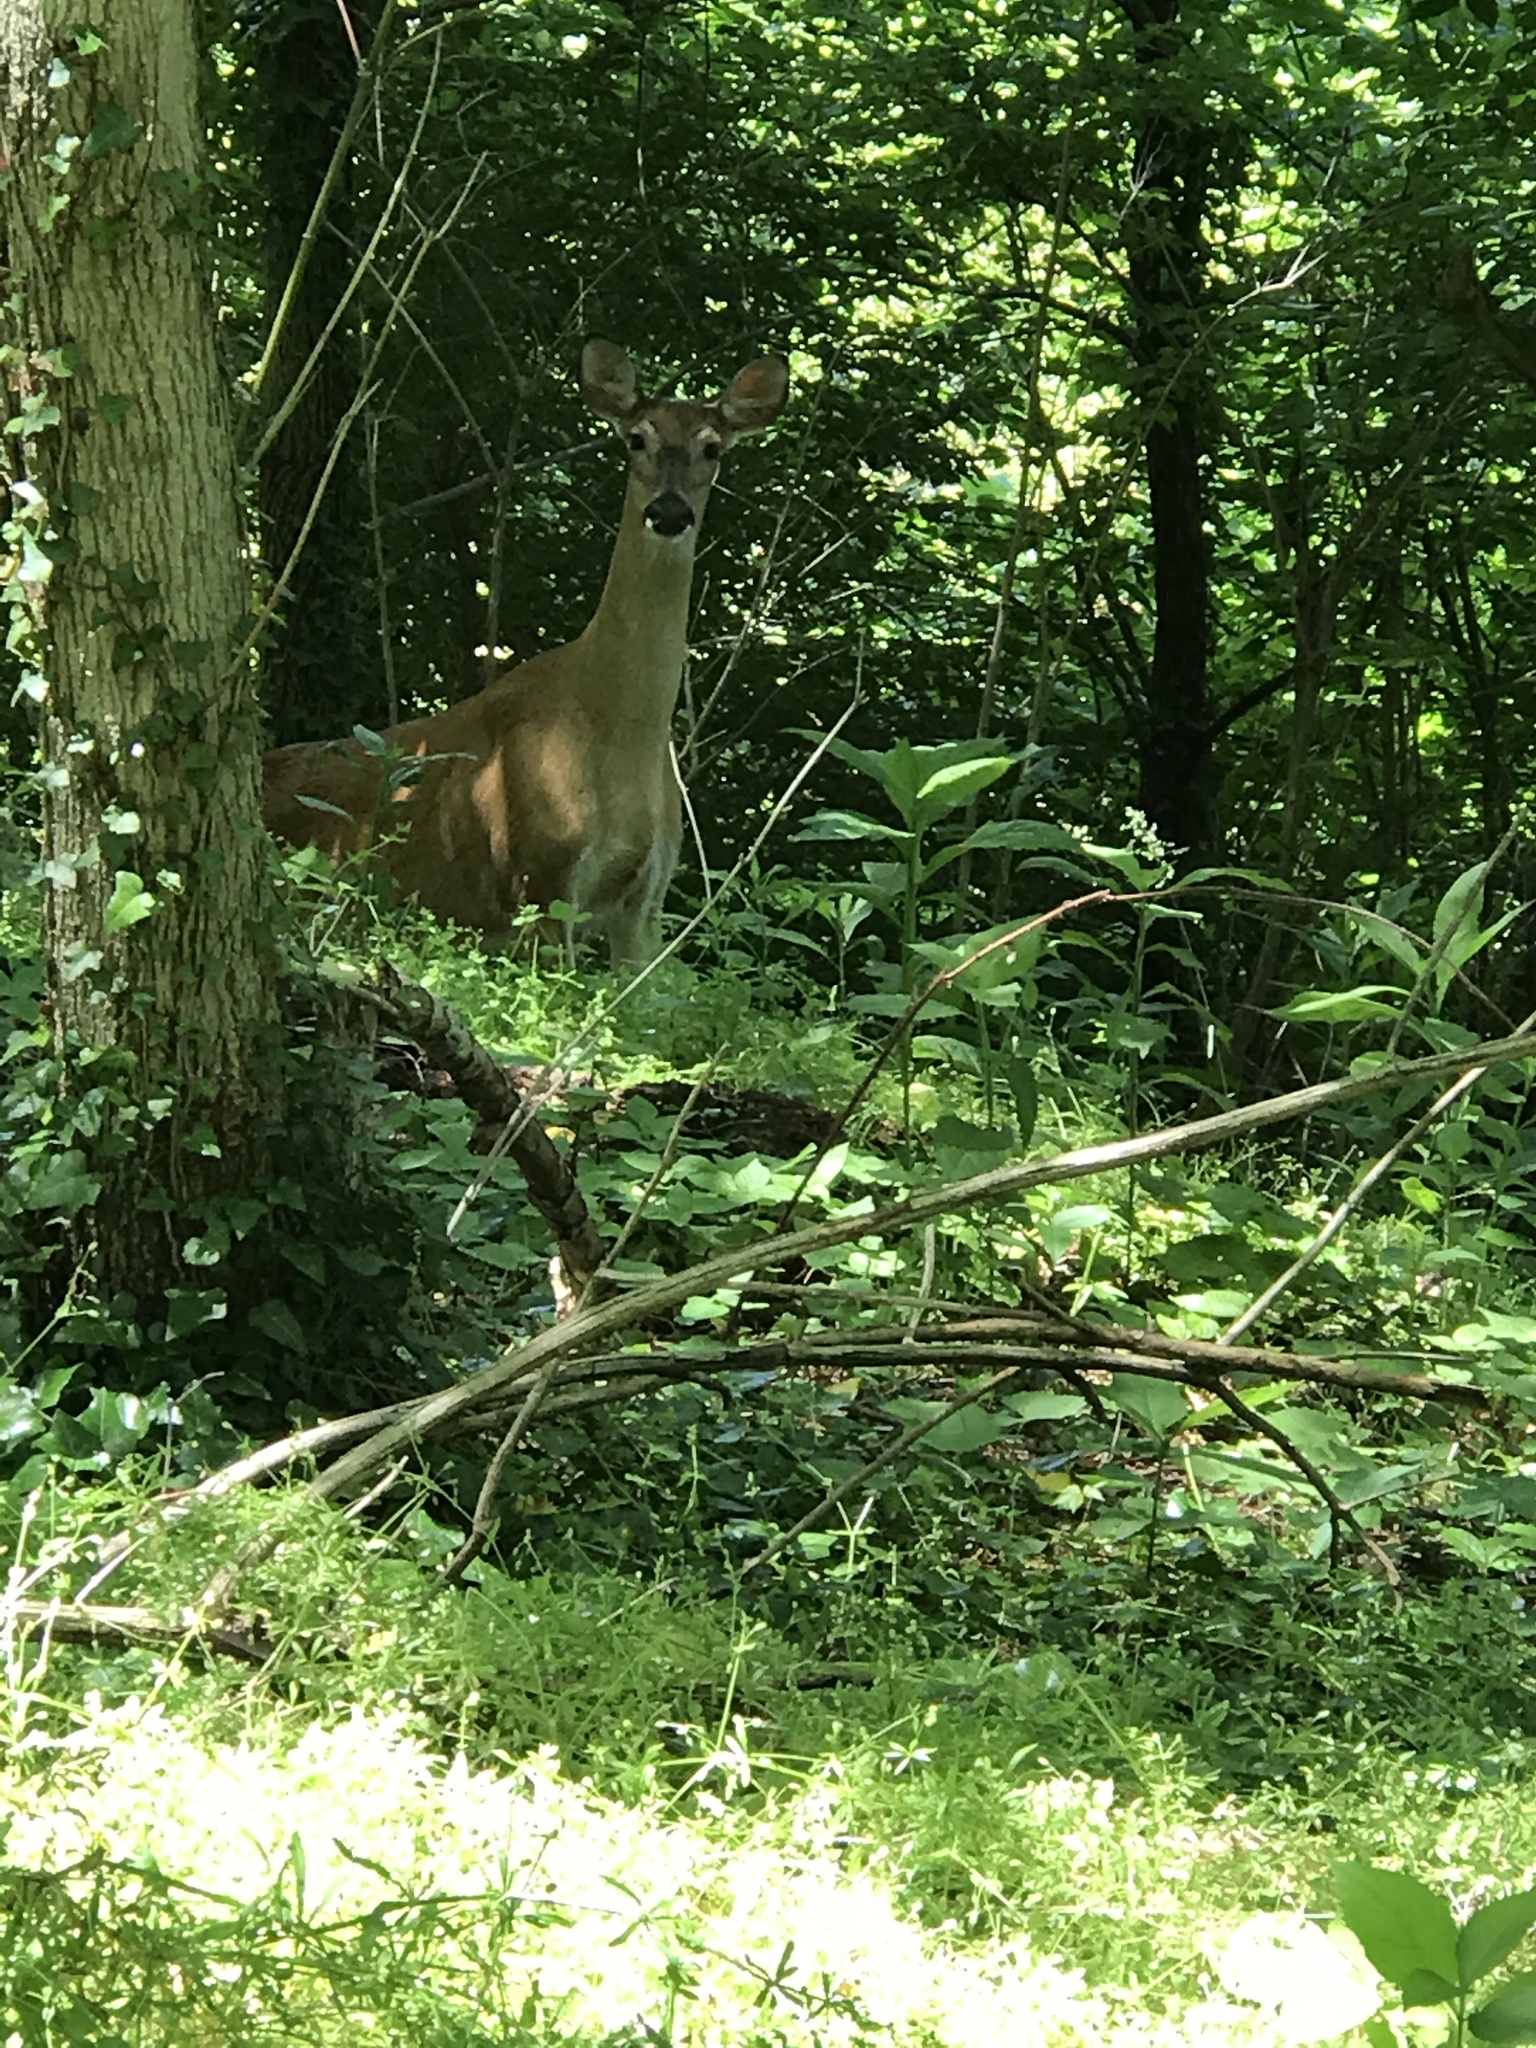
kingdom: Animalia
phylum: Chordata
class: Mammalia
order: Artiodactyla
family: Cervidae
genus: Odocoileus
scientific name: Odocoileus virginianus
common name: White-tailed deer
